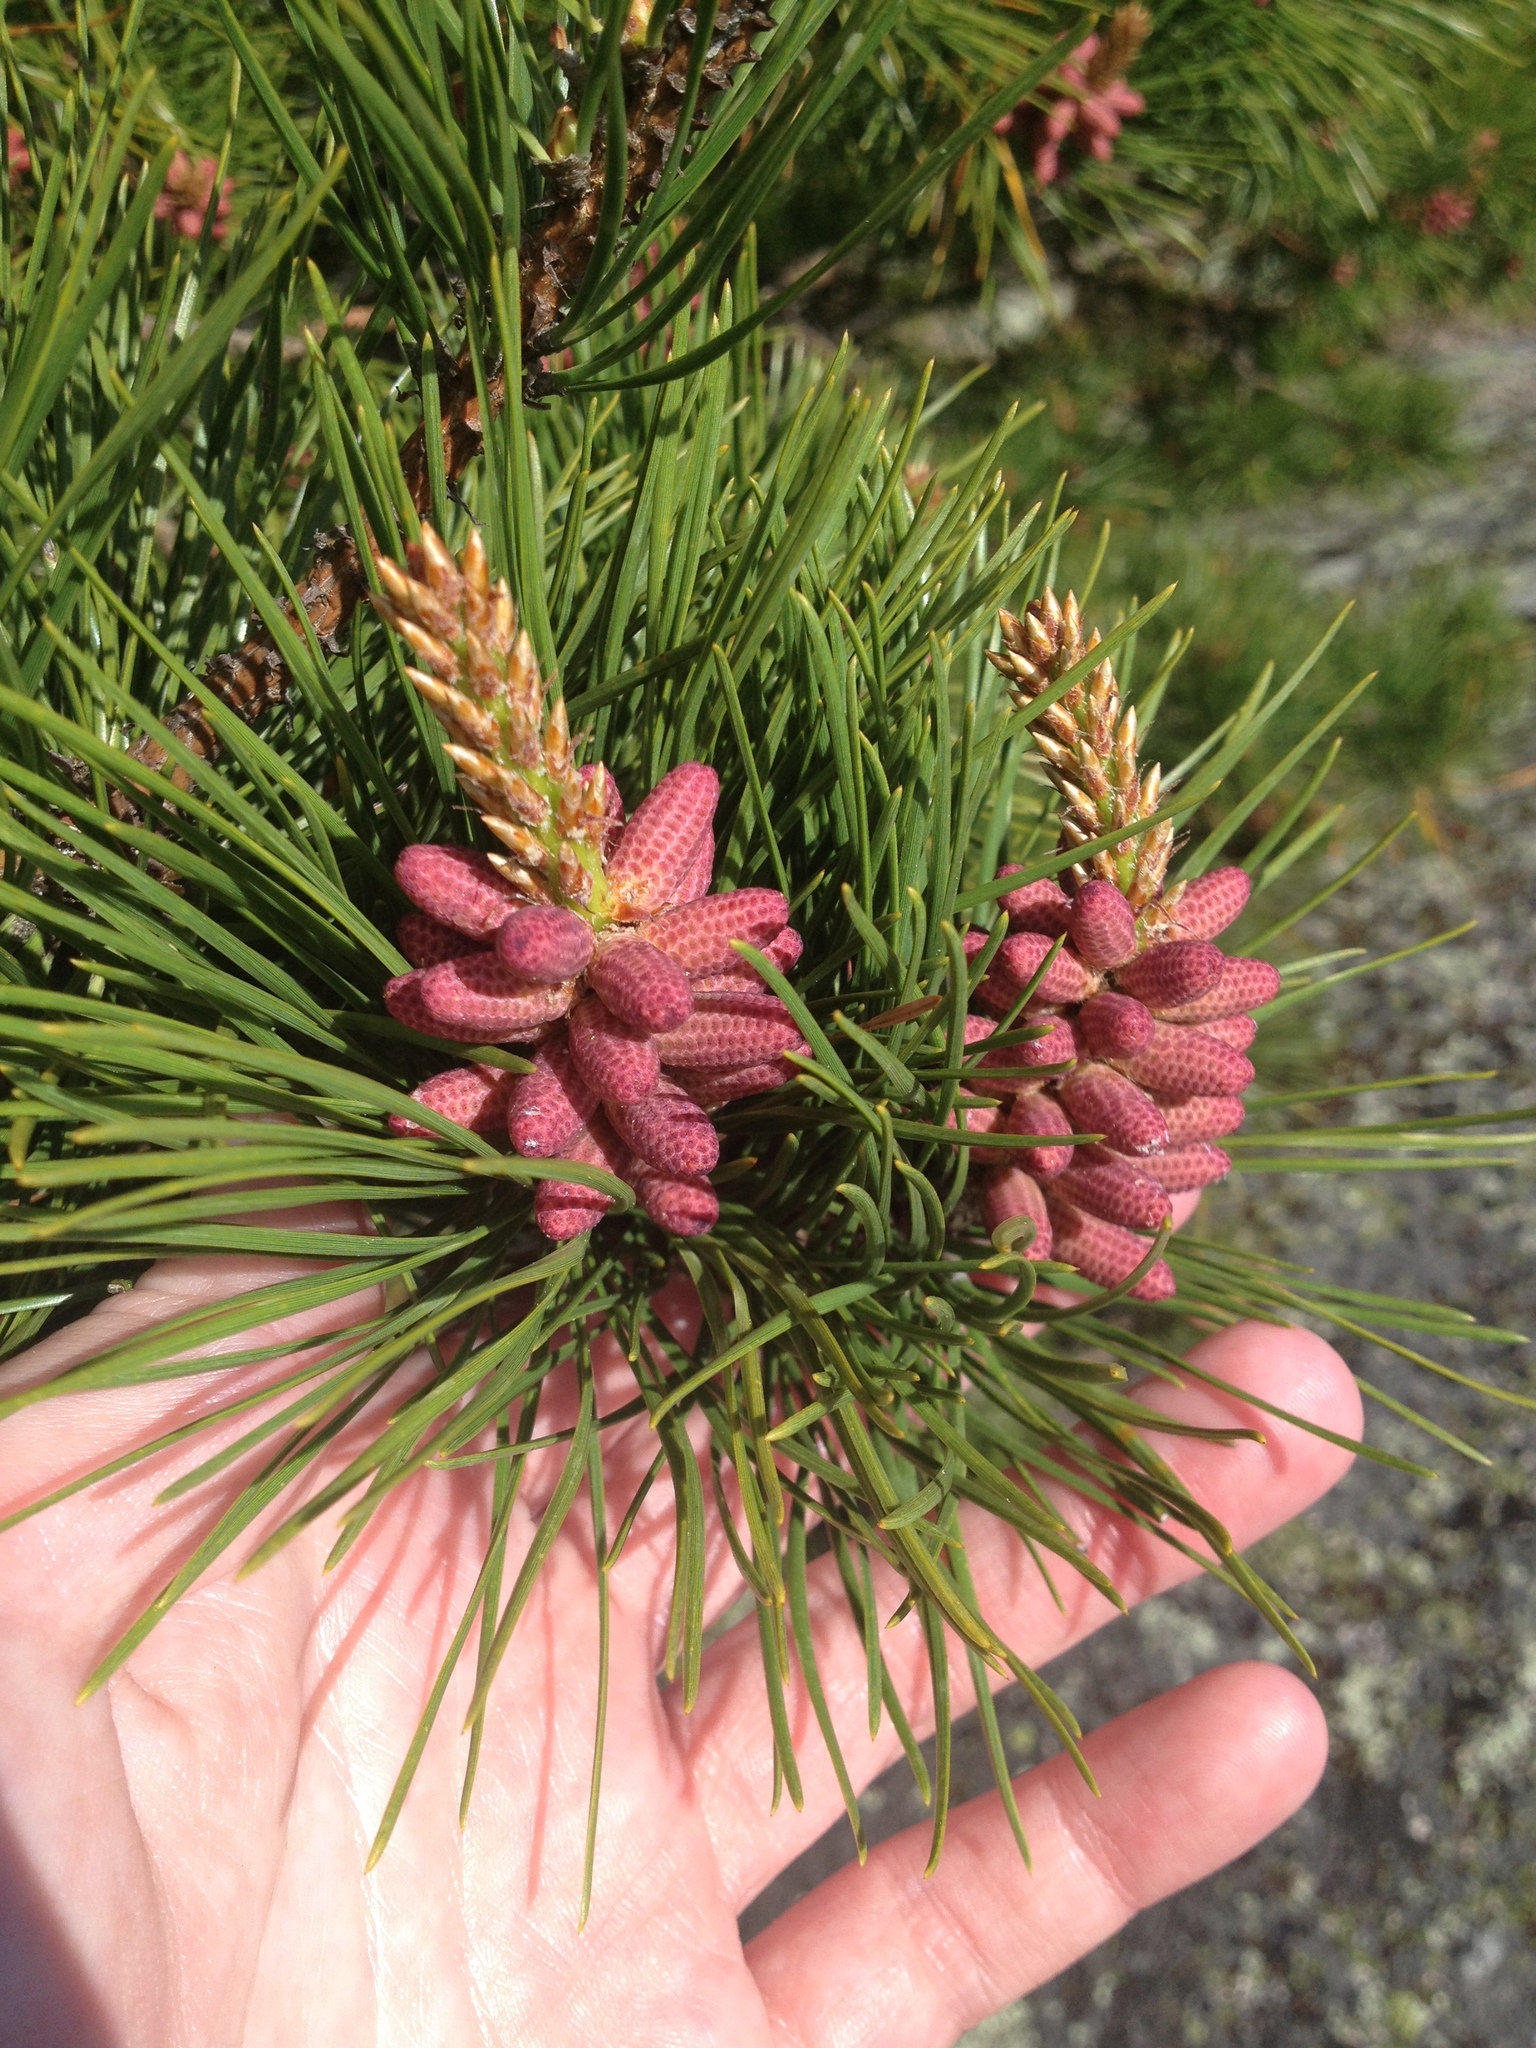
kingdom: Plantae
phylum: Tracheophyta
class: Pinopsida
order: Pinales
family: Pinaceae
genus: Pinus
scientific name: Pinus rigida
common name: Pitch pine
